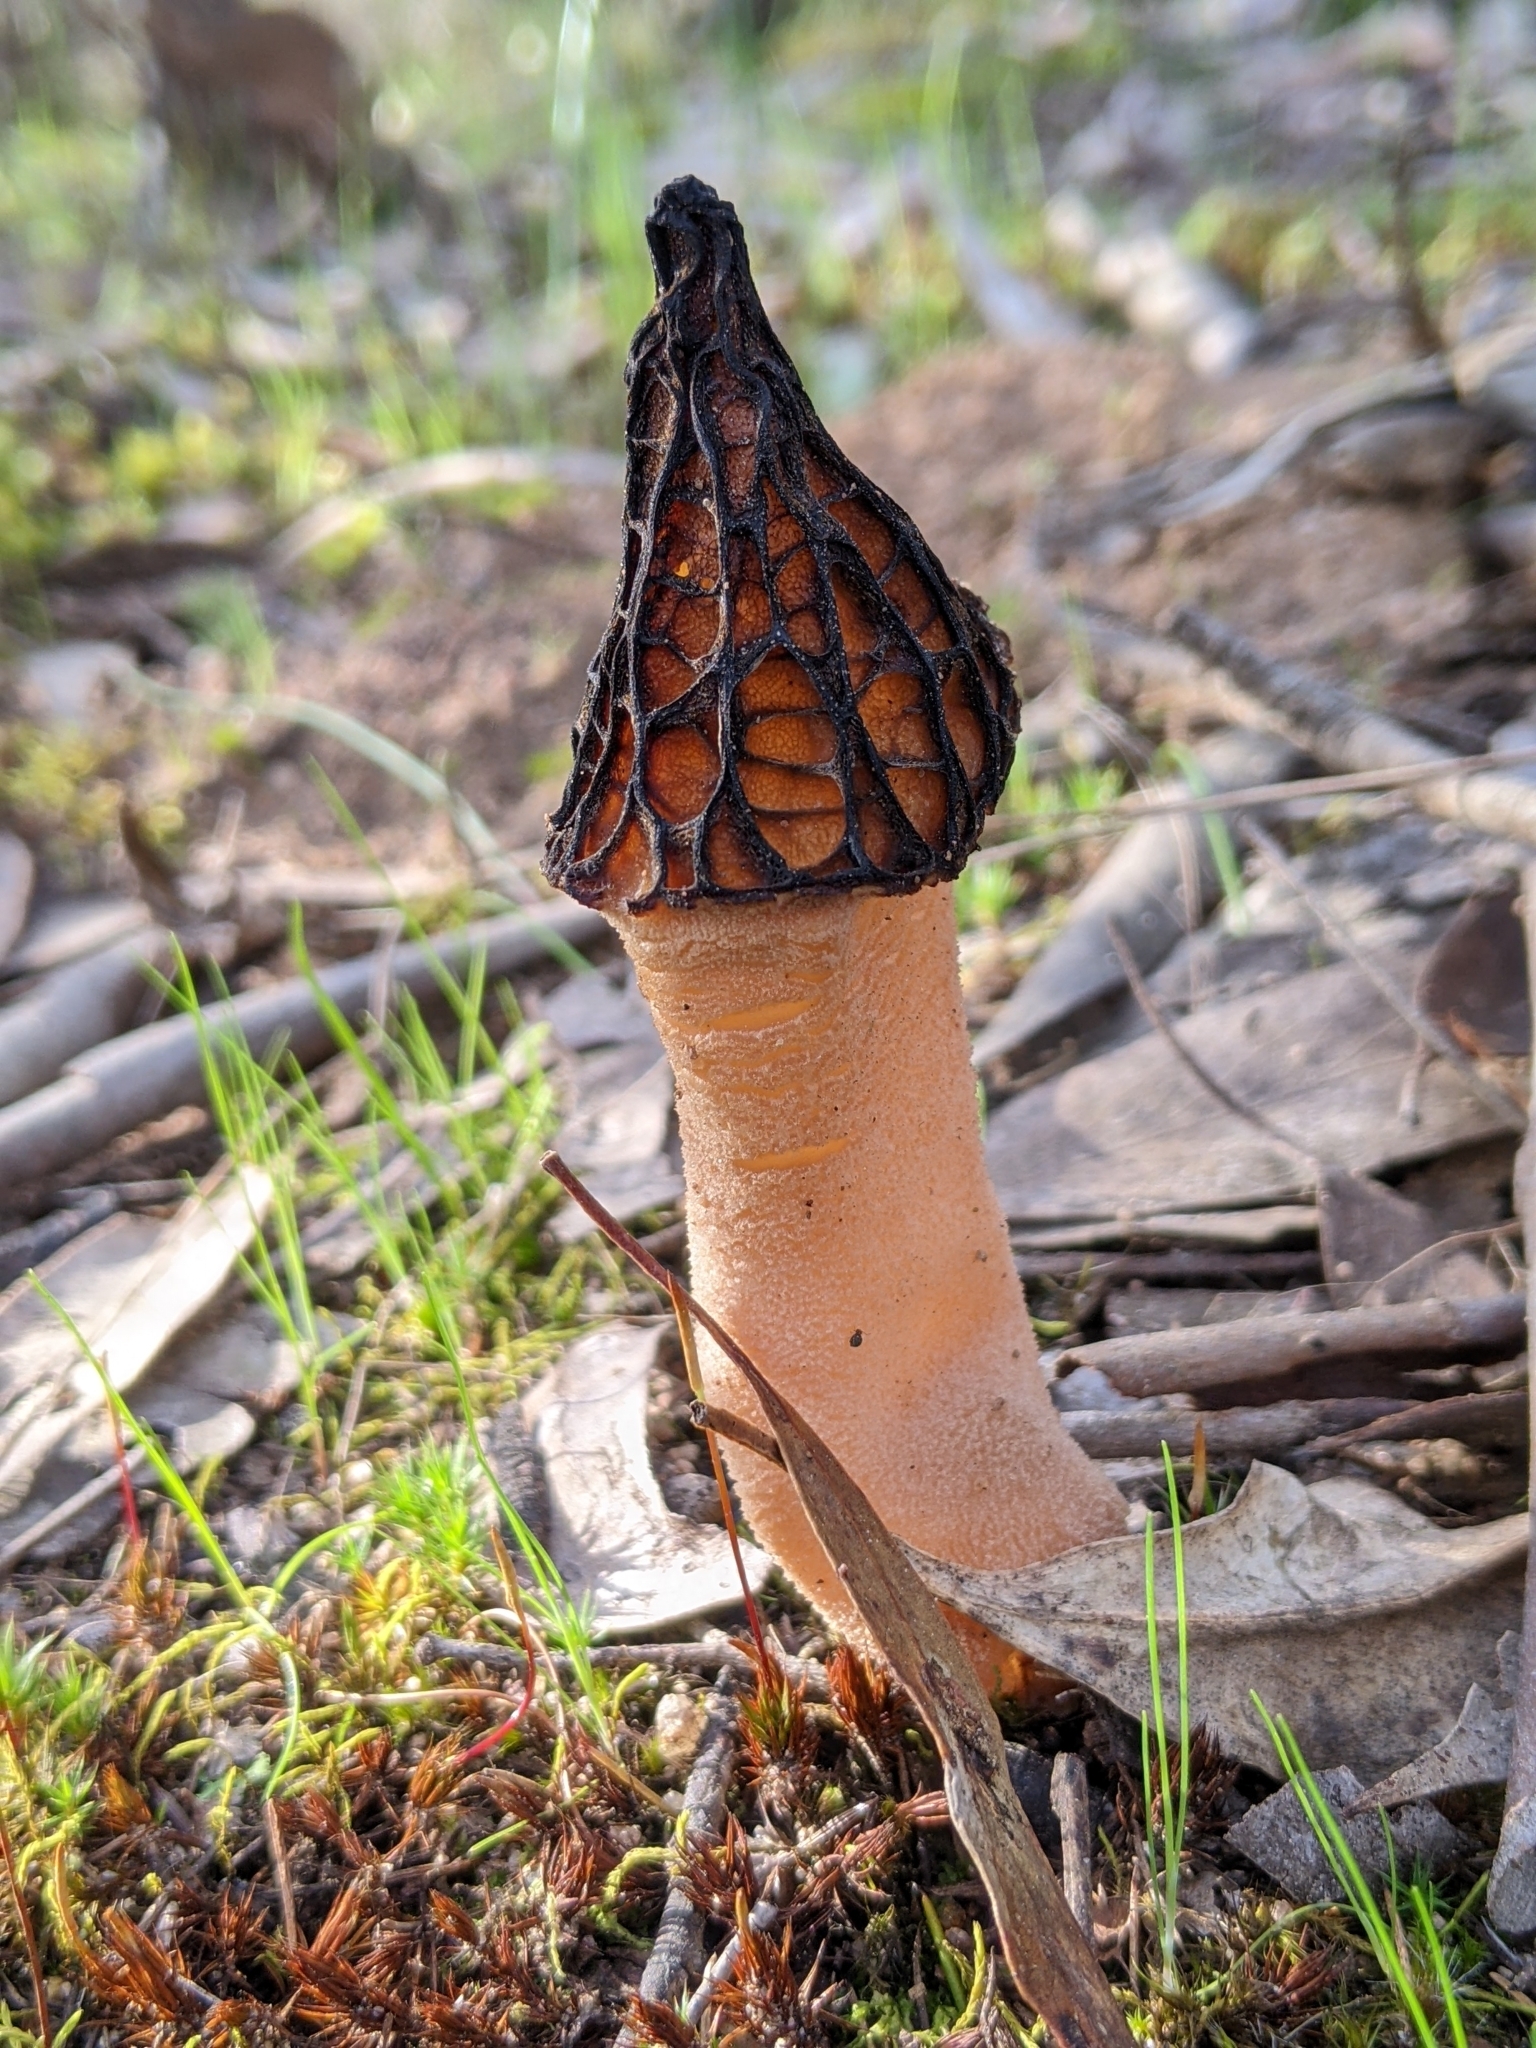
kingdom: Fungi
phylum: Ascomycota
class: Pezizomycetes
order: Pezizales
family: Morchellaceae
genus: Morchella
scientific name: Morchella australiana
